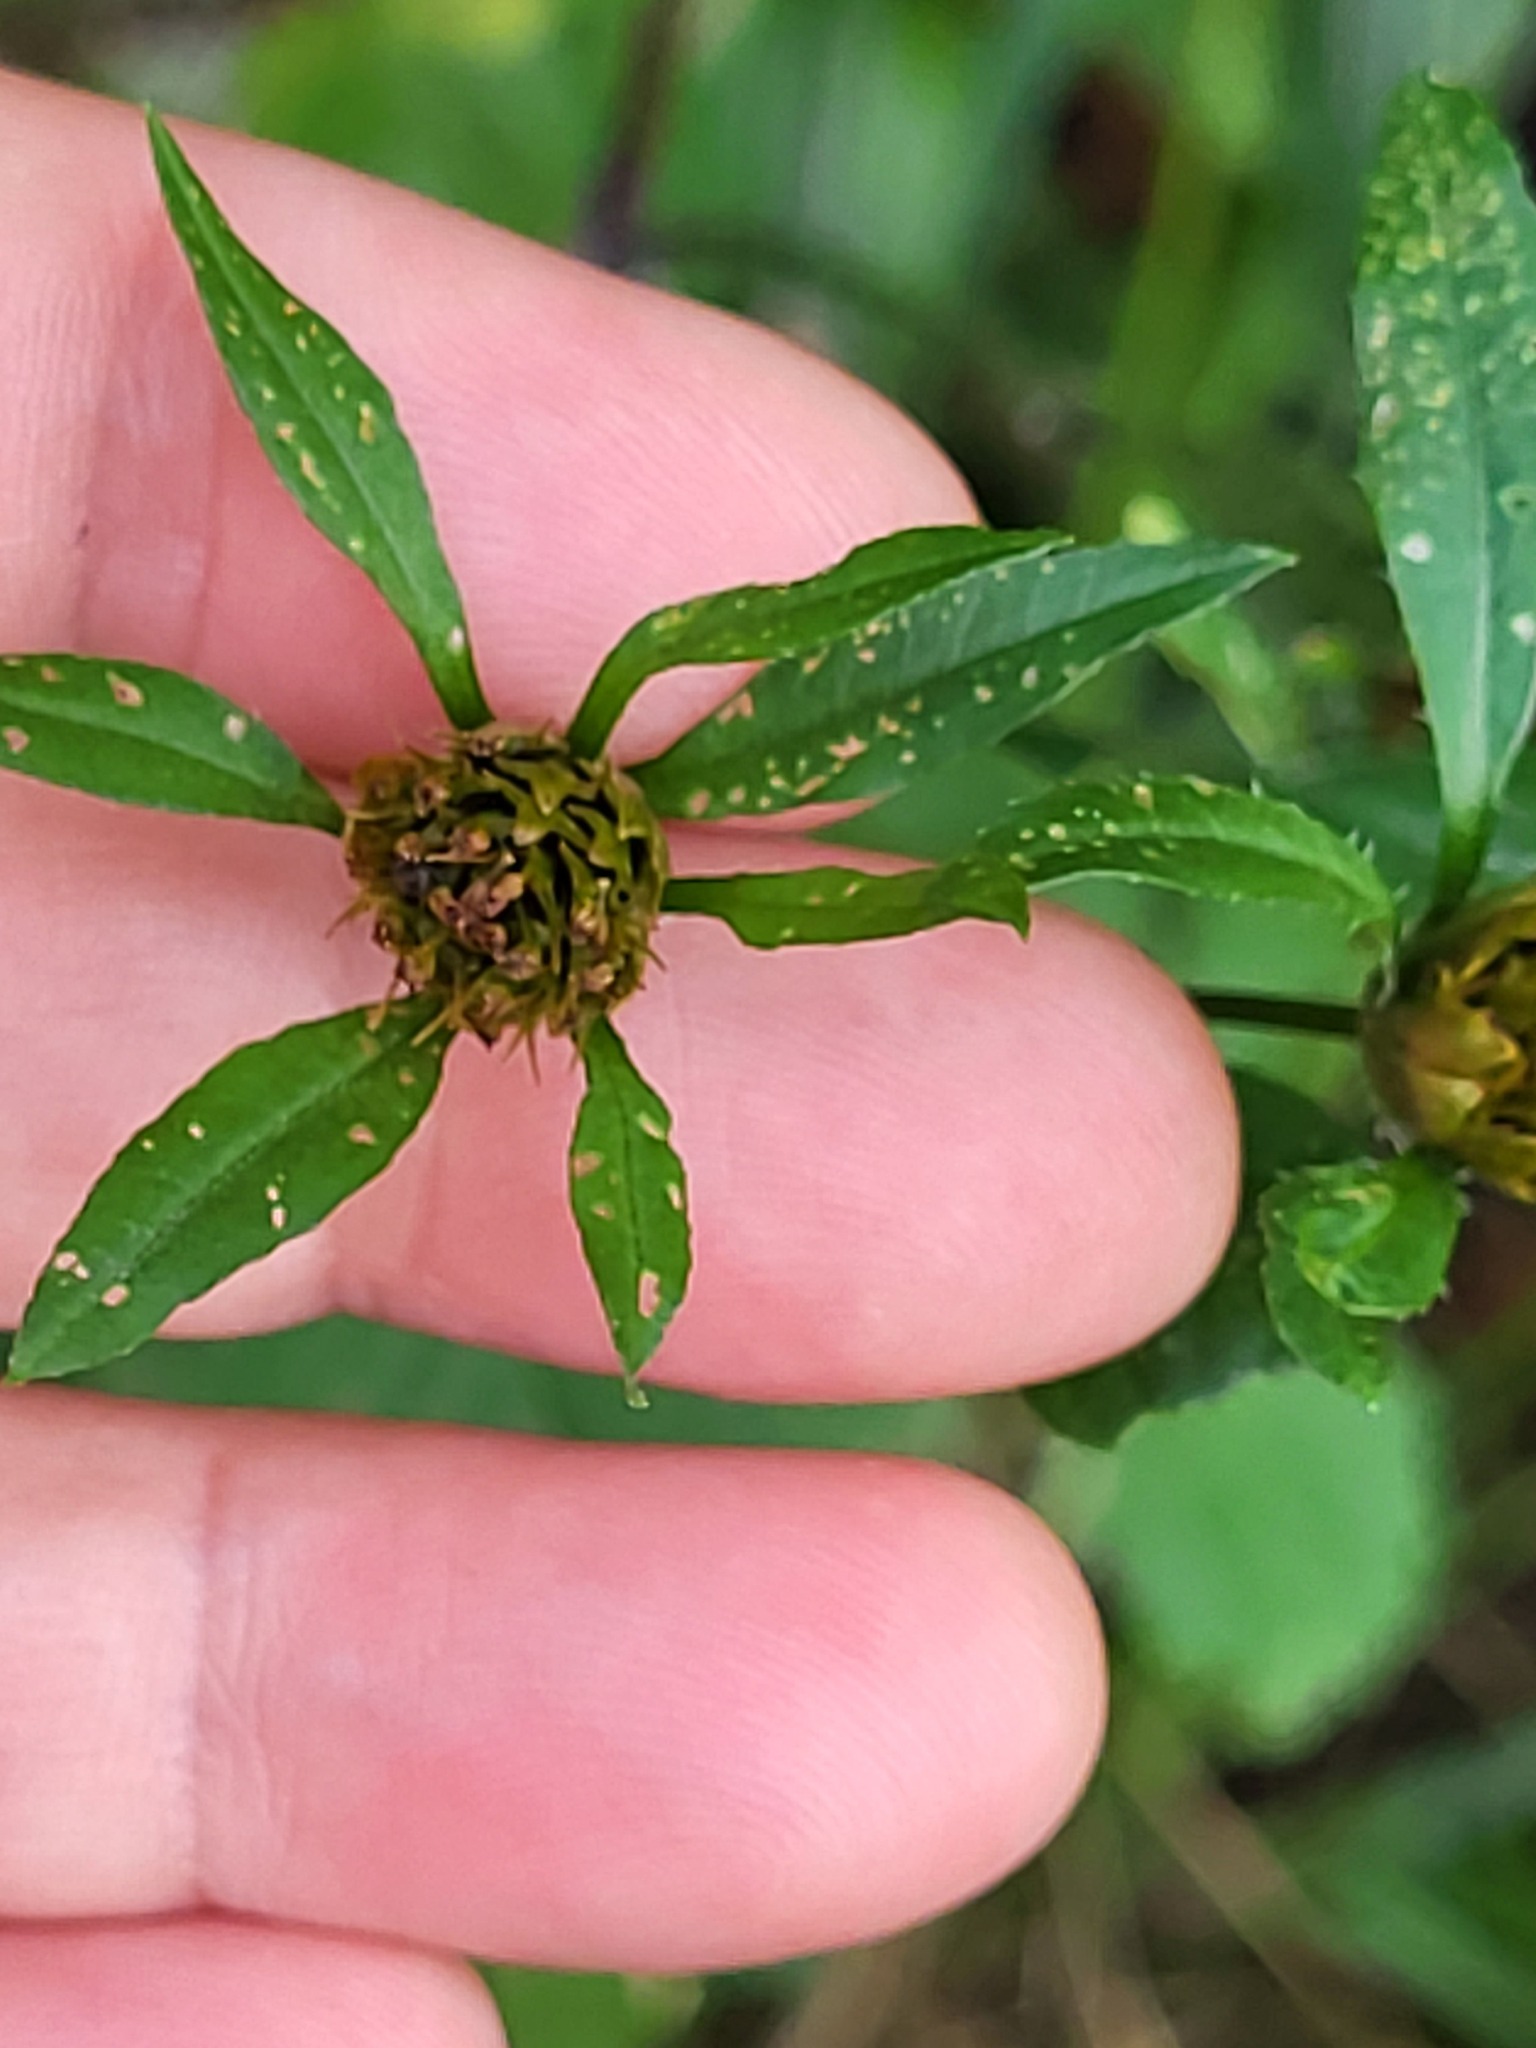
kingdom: Plantae
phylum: Tracheophyta
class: Magnoliopsida
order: Asterales
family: Asteraceae
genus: Bidens
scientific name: Bidens frondosa
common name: Beggarticks
